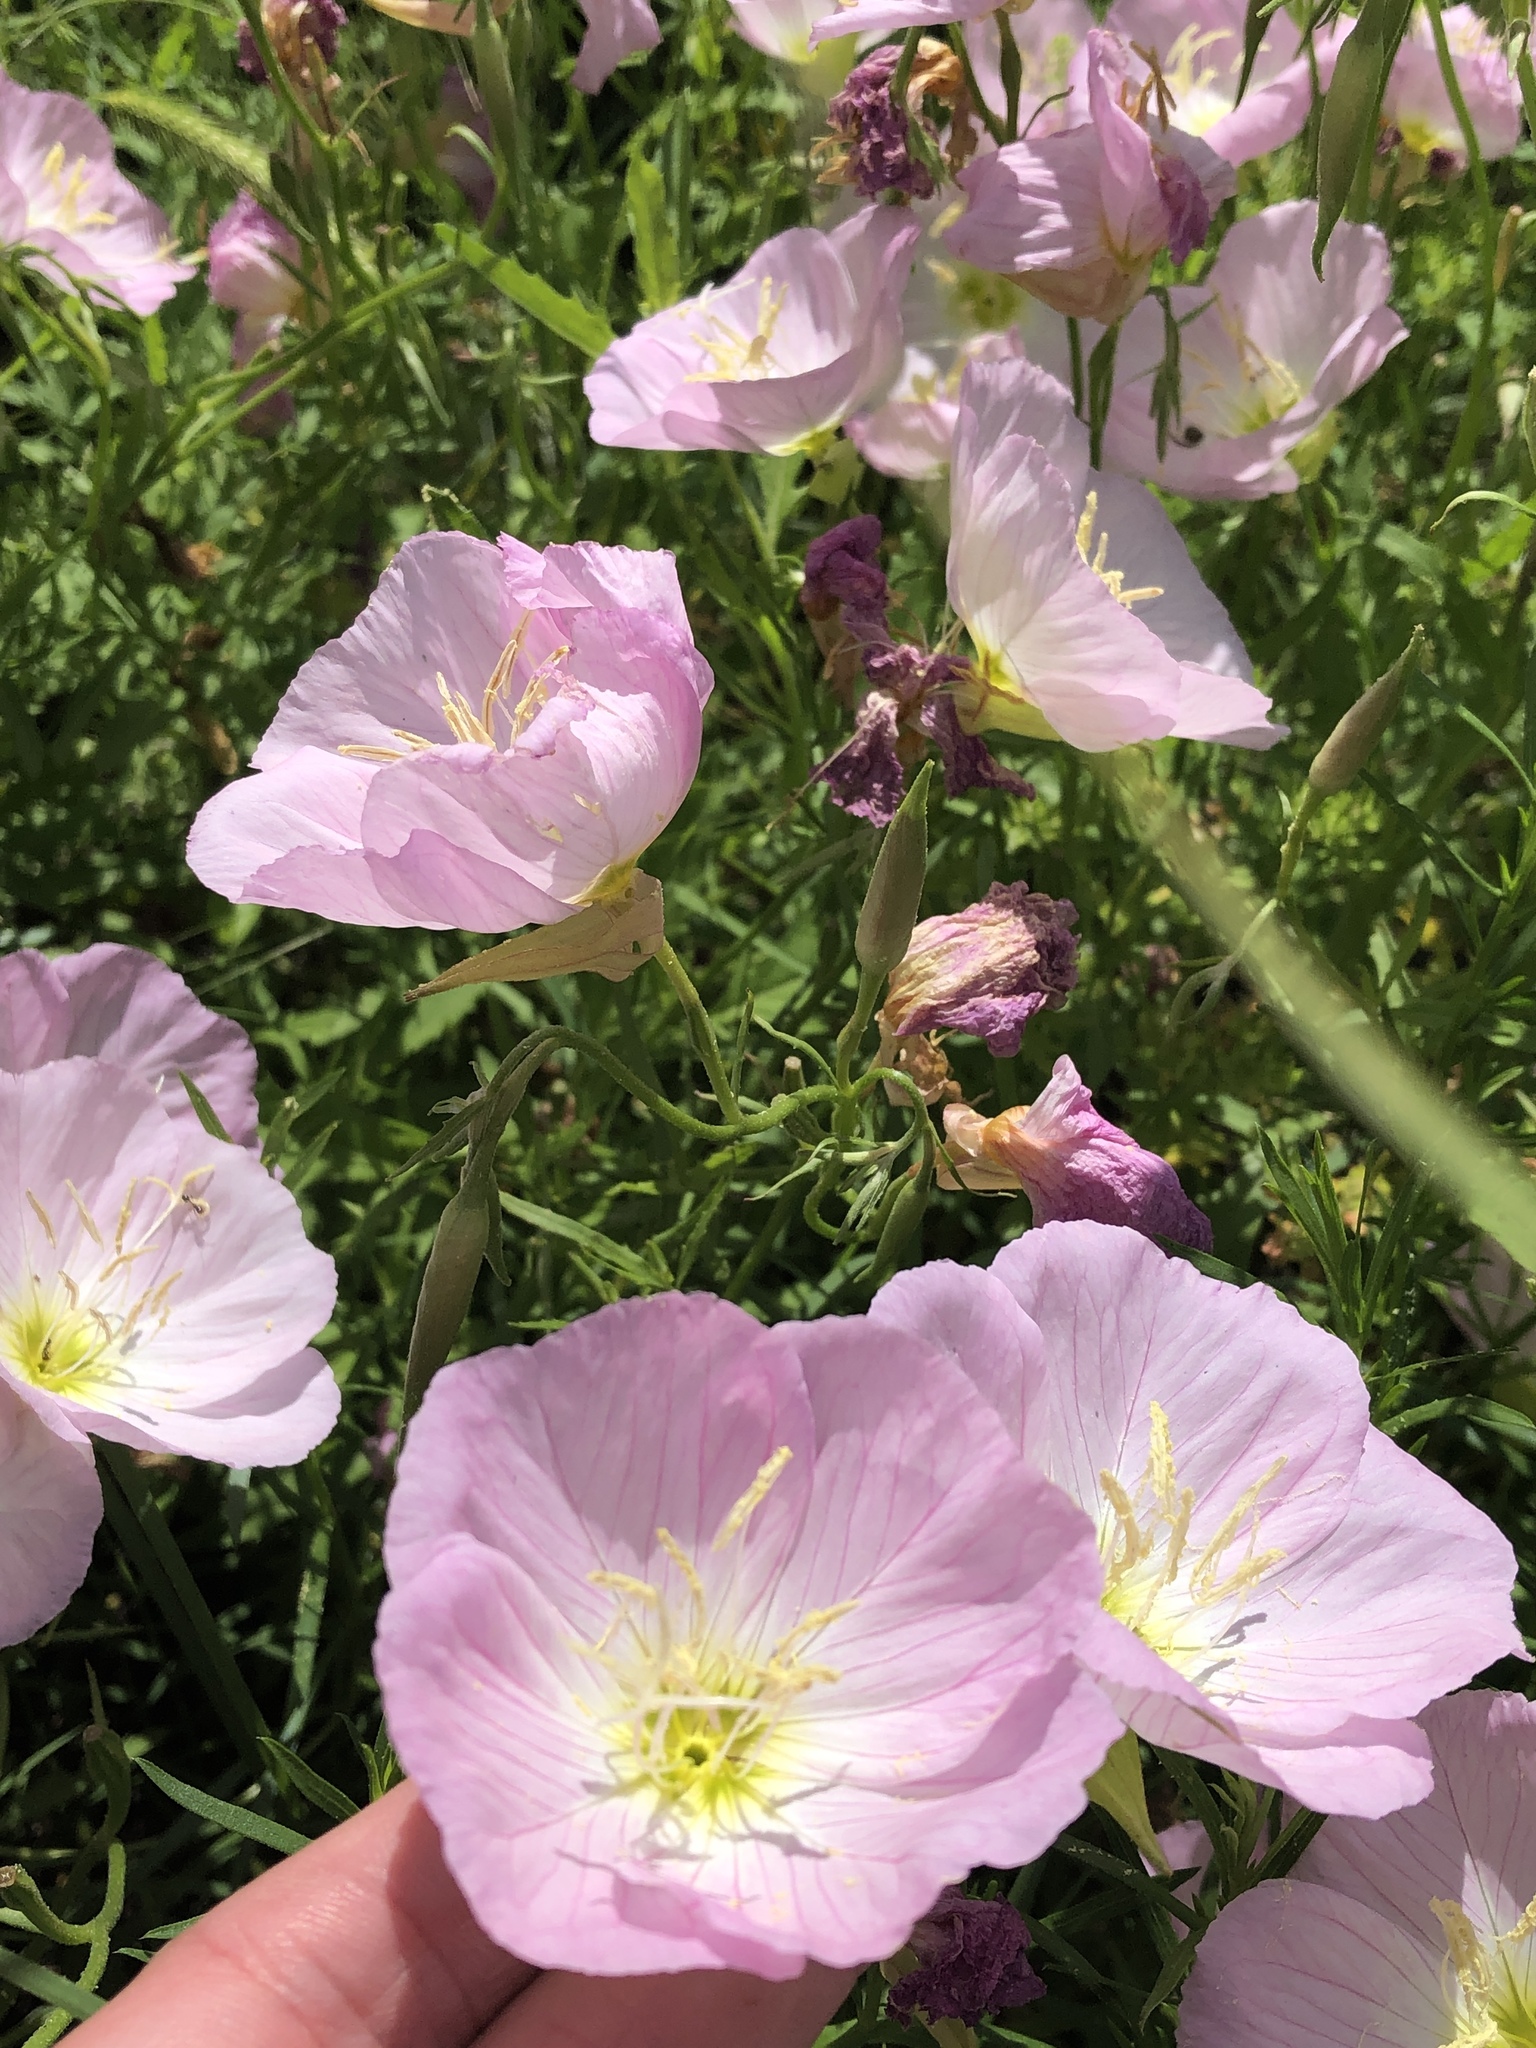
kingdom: Plantae
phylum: Tracheophyta
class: Magnoliopsida
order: Myrtales
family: Onagraceae
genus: Oenothera
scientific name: Oenothera speciosa
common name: White evening-primrose
